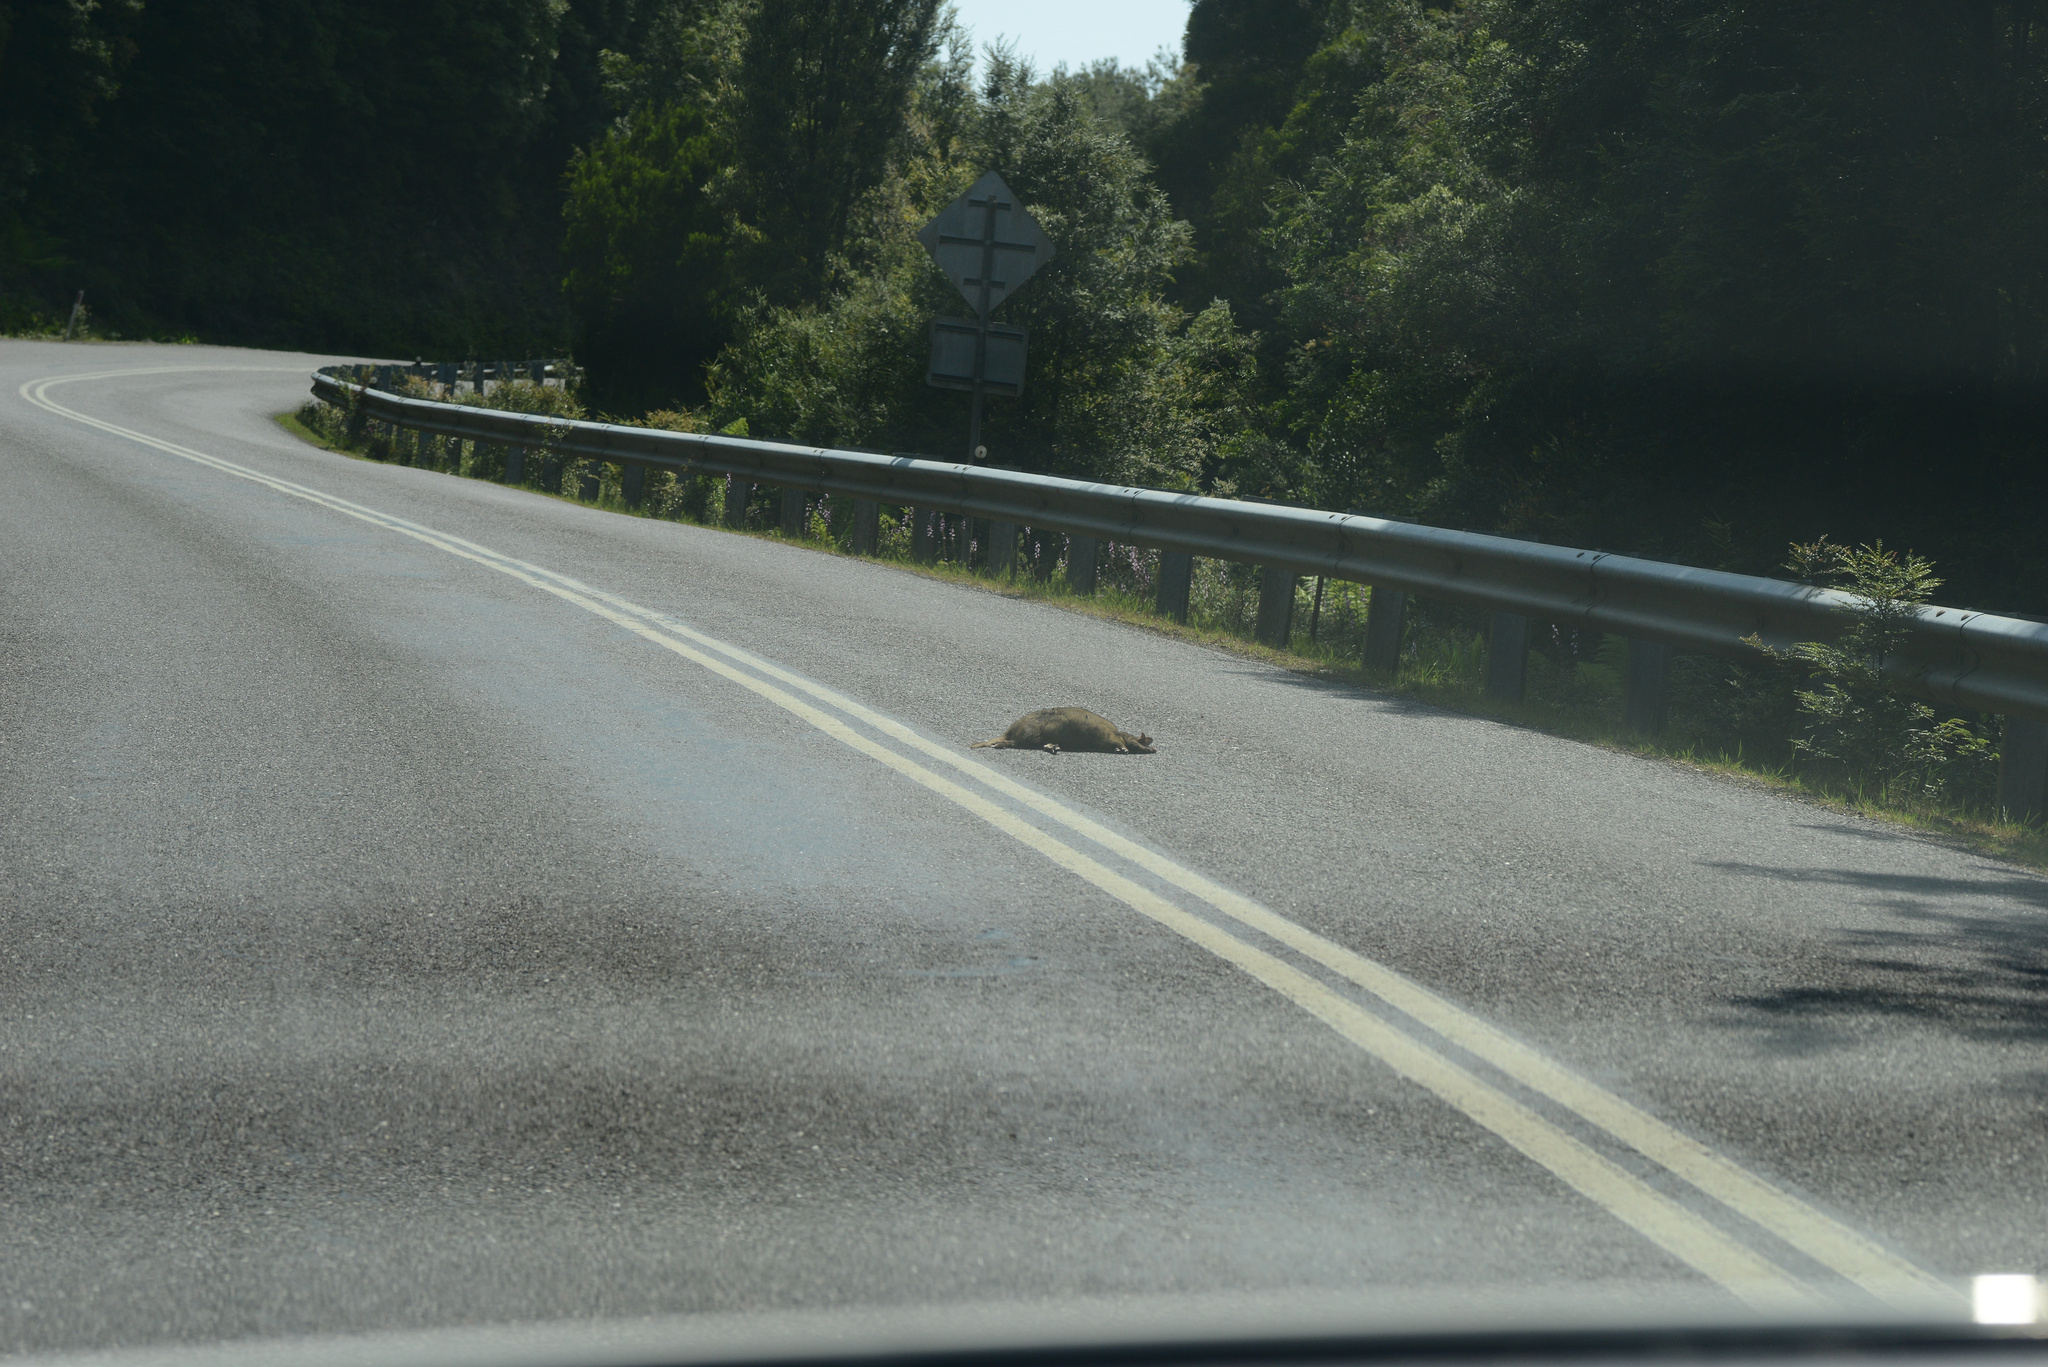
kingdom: Animalia
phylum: Chordata
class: Mammalia
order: Diprotodontia
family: Macropodidae
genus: Thylogale
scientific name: Thylogale billardierii
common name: Tasmanian pademelon
